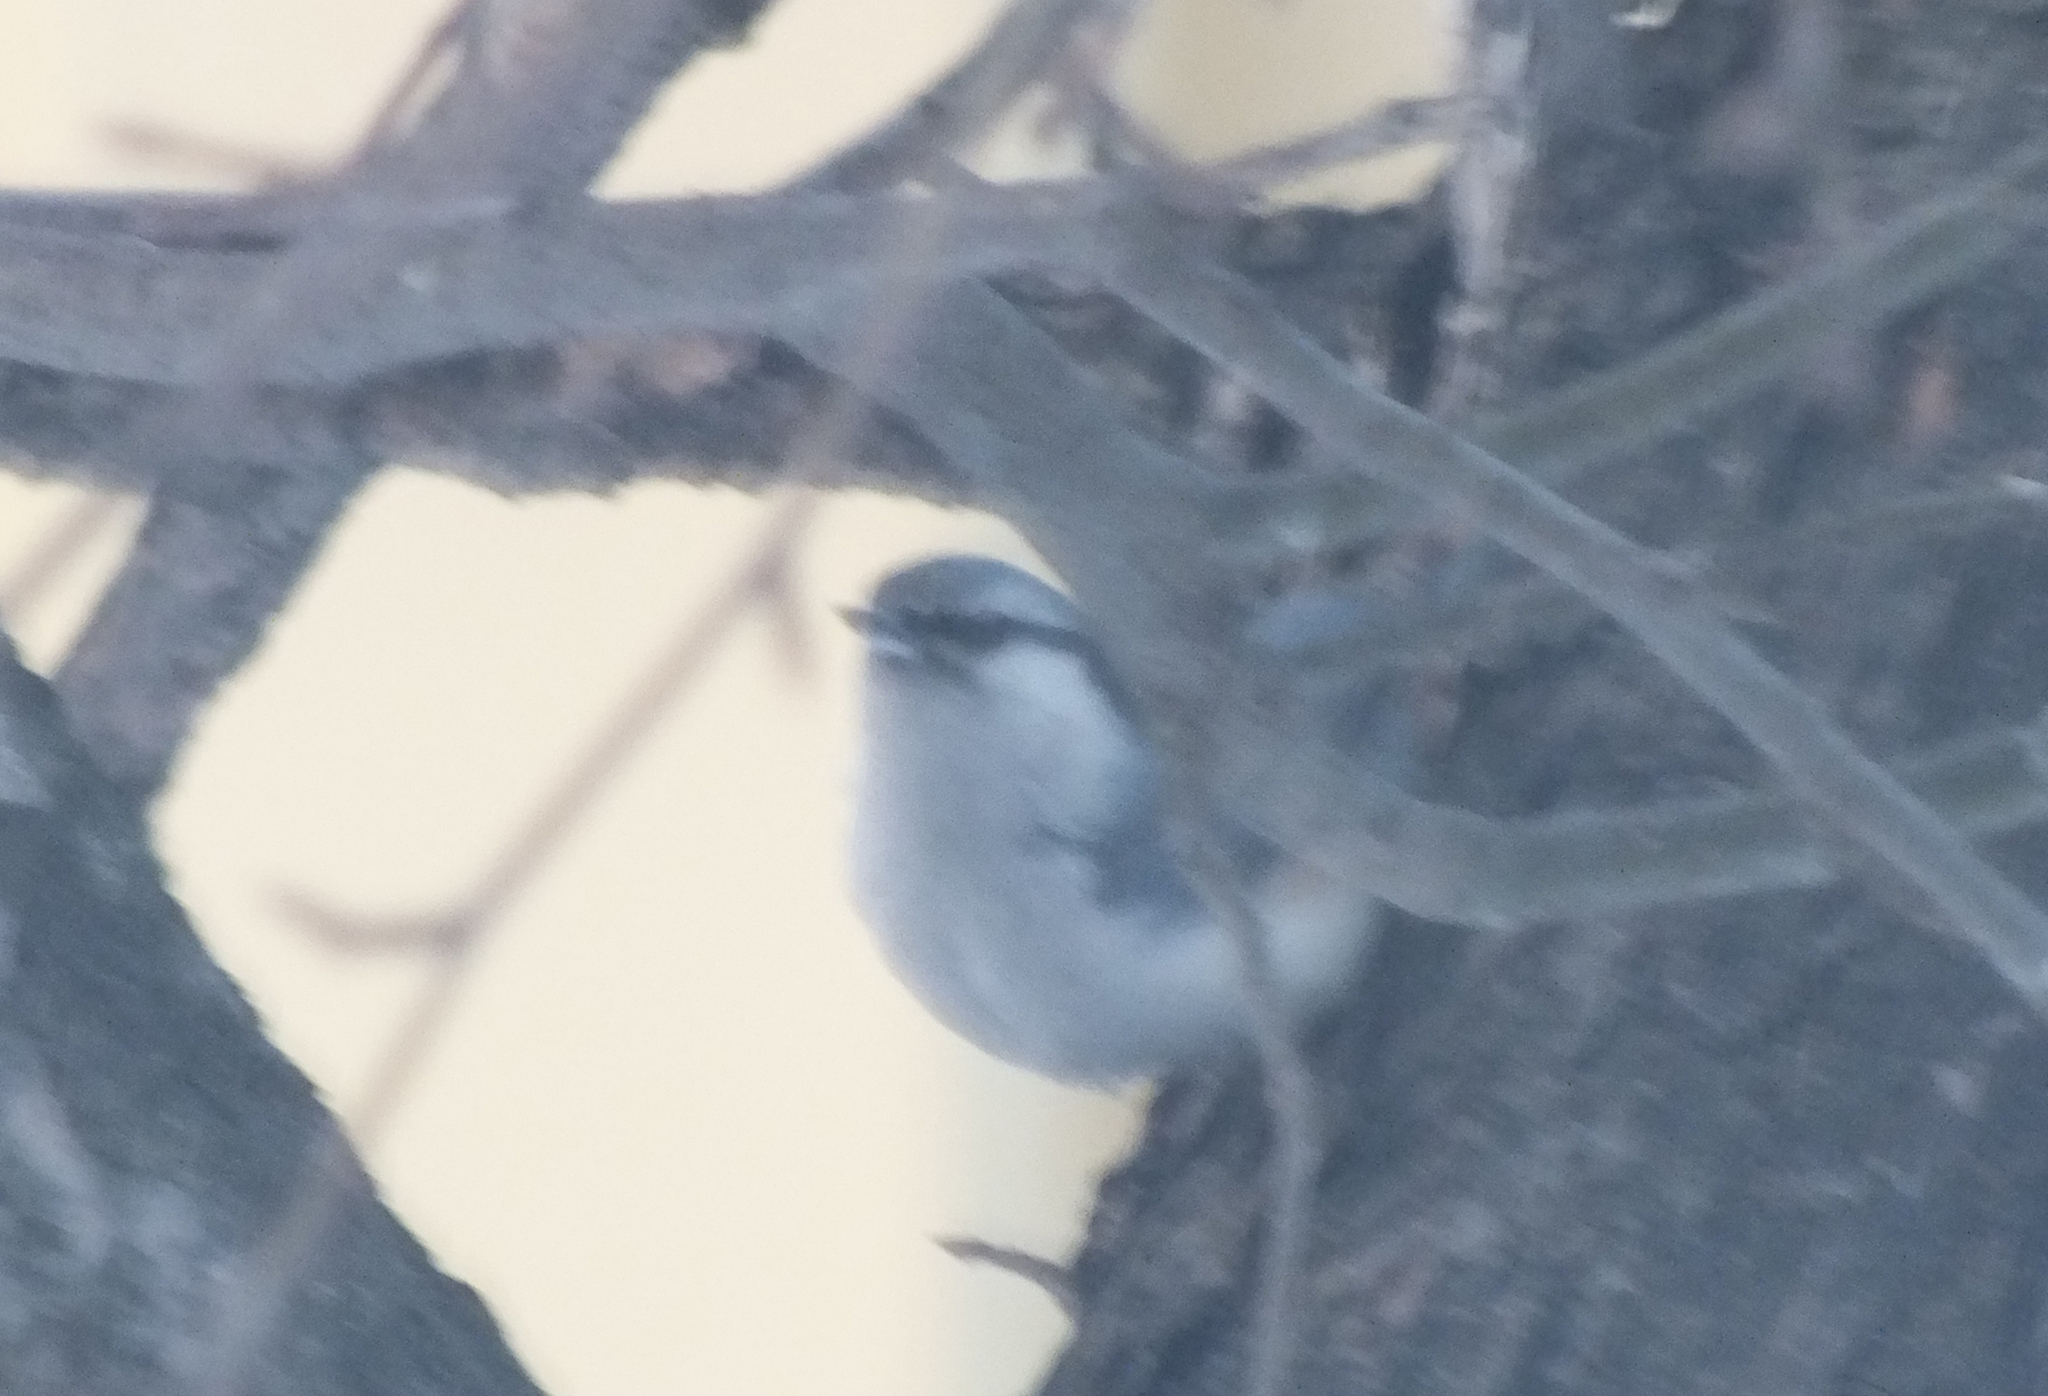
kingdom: Animalia
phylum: Chordata
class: Aves
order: Passeriformes
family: Sittidae
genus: Sitta
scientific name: Sitta europaea
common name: Eurasian nuthatch
